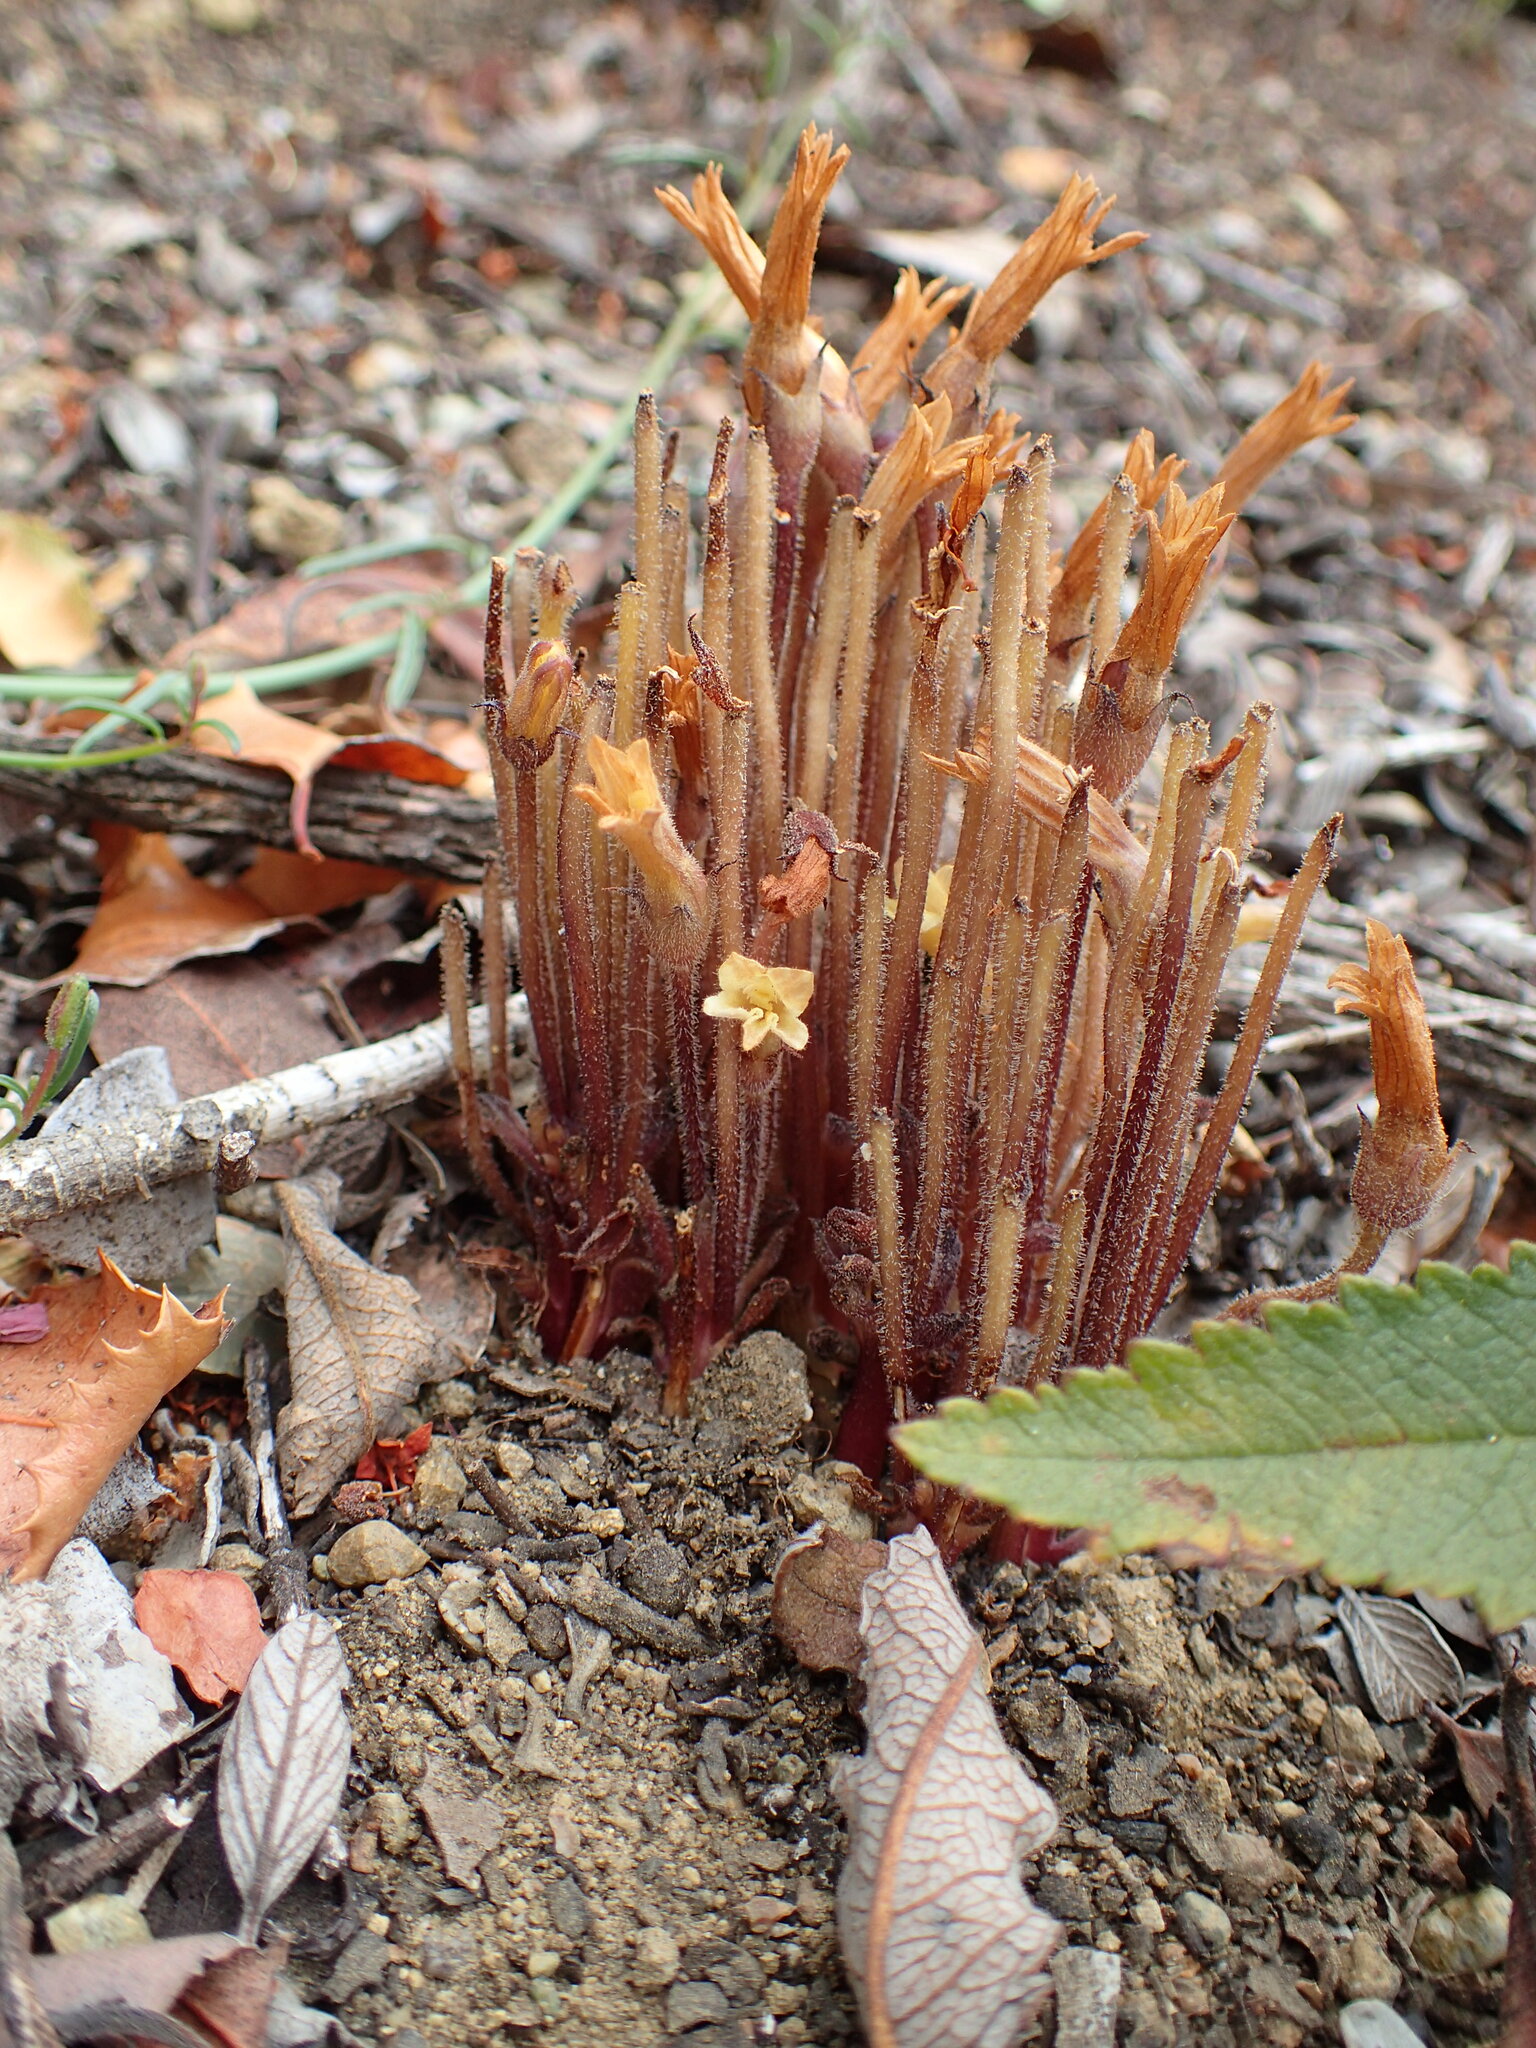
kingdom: Plantae
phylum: Tracheophyta
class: Magnoliopsida
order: Lamiales
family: Orobanchaceae
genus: Aphyllon
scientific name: Aphyllon franciscanum
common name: San francisco broomrape
